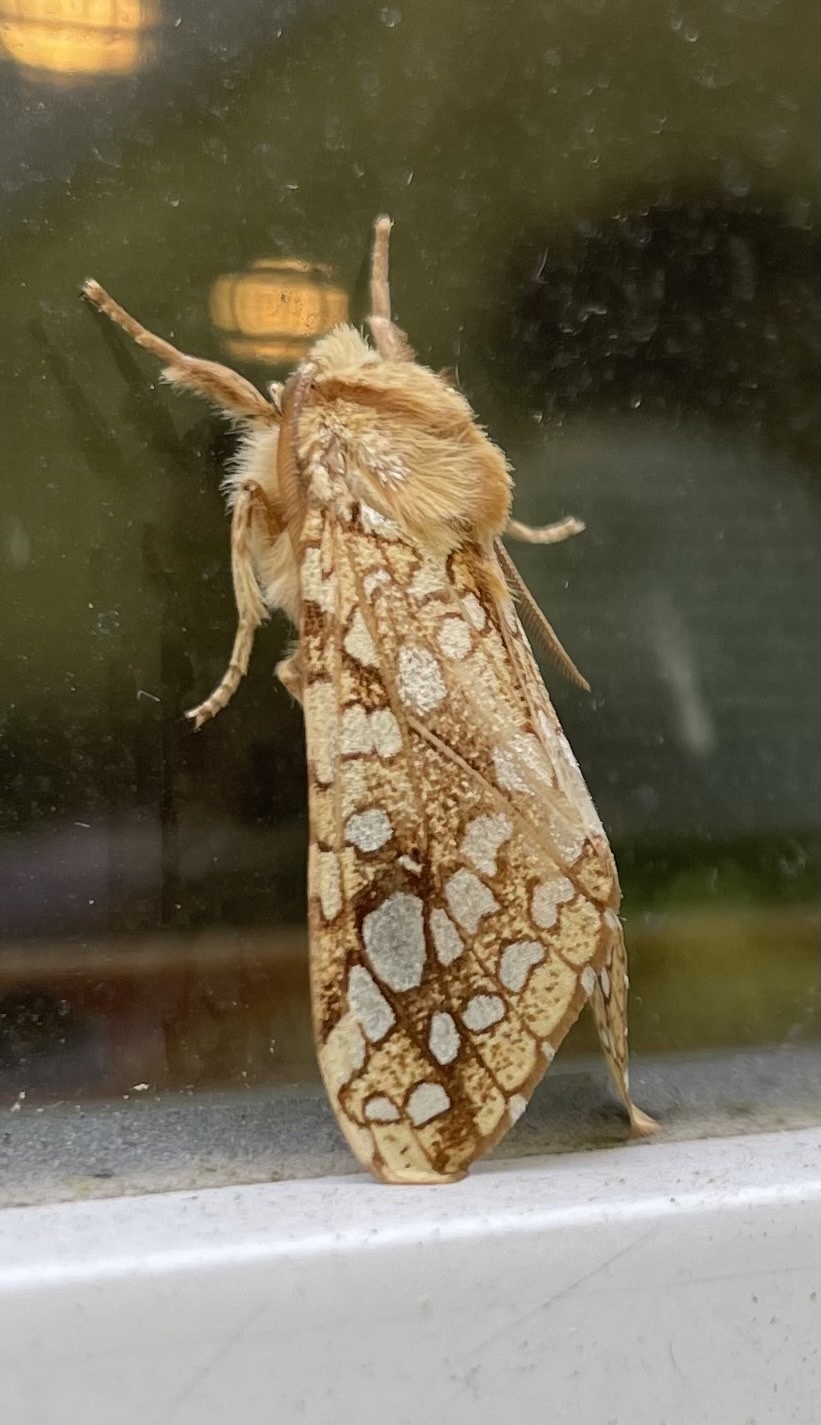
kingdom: Animalia
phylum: Arthropoda
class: Insecta
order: Lepidoptera
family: Erebidae
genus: Lophocampa
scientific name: Lophocampa caryae
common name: Hickory tussock moth
